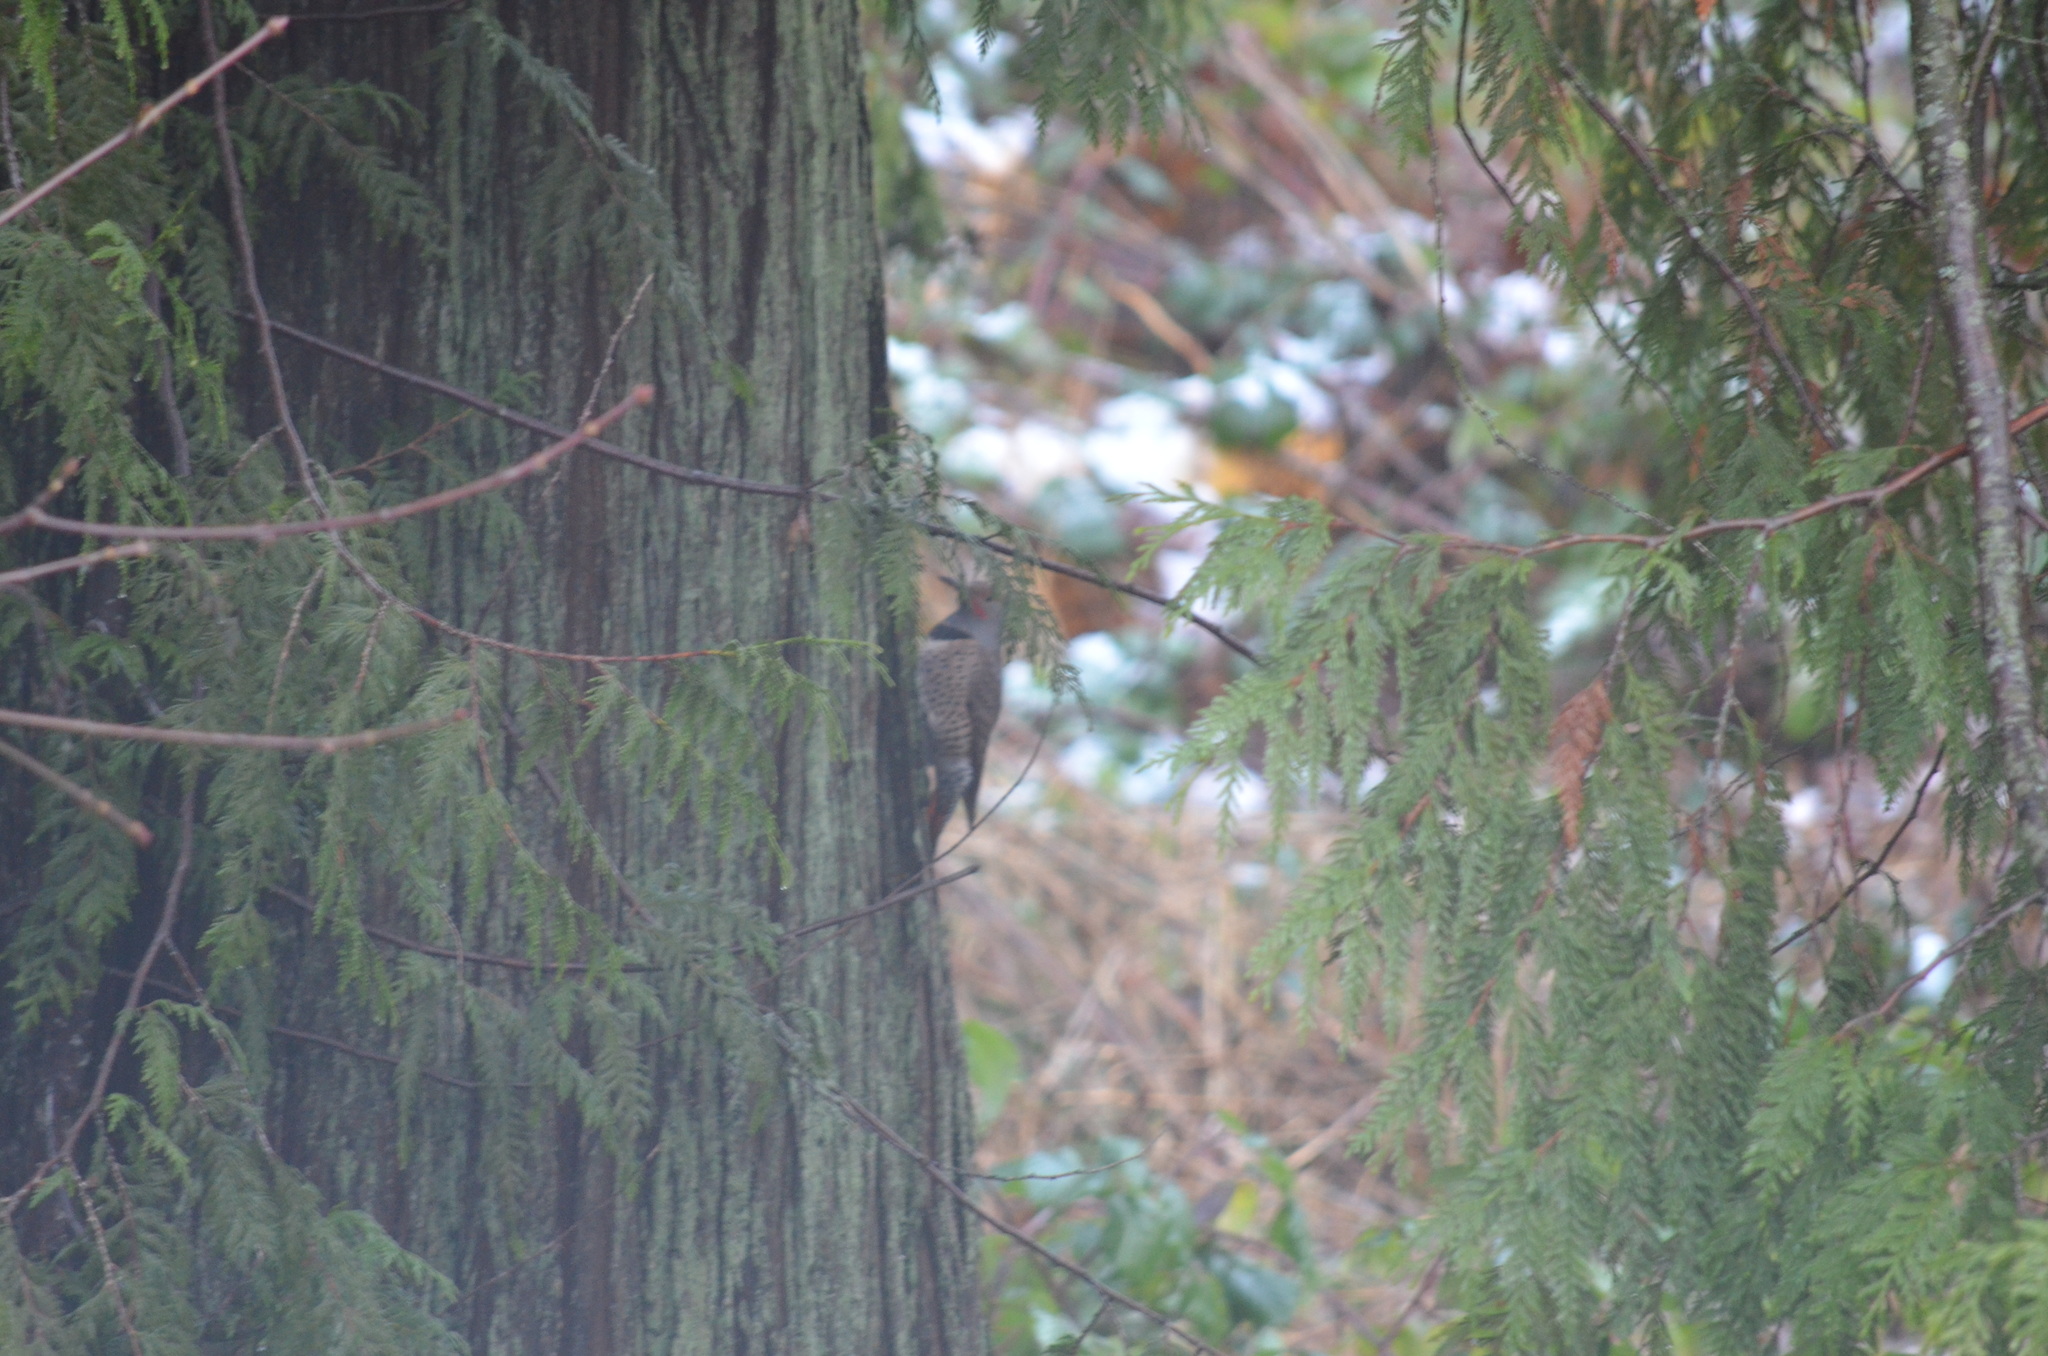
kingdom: Animalia
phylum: Chordata
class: Aves
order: Piciformes
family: Picidae
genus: Colaptes
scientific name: Colaptes auratus
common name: Northern flicker
